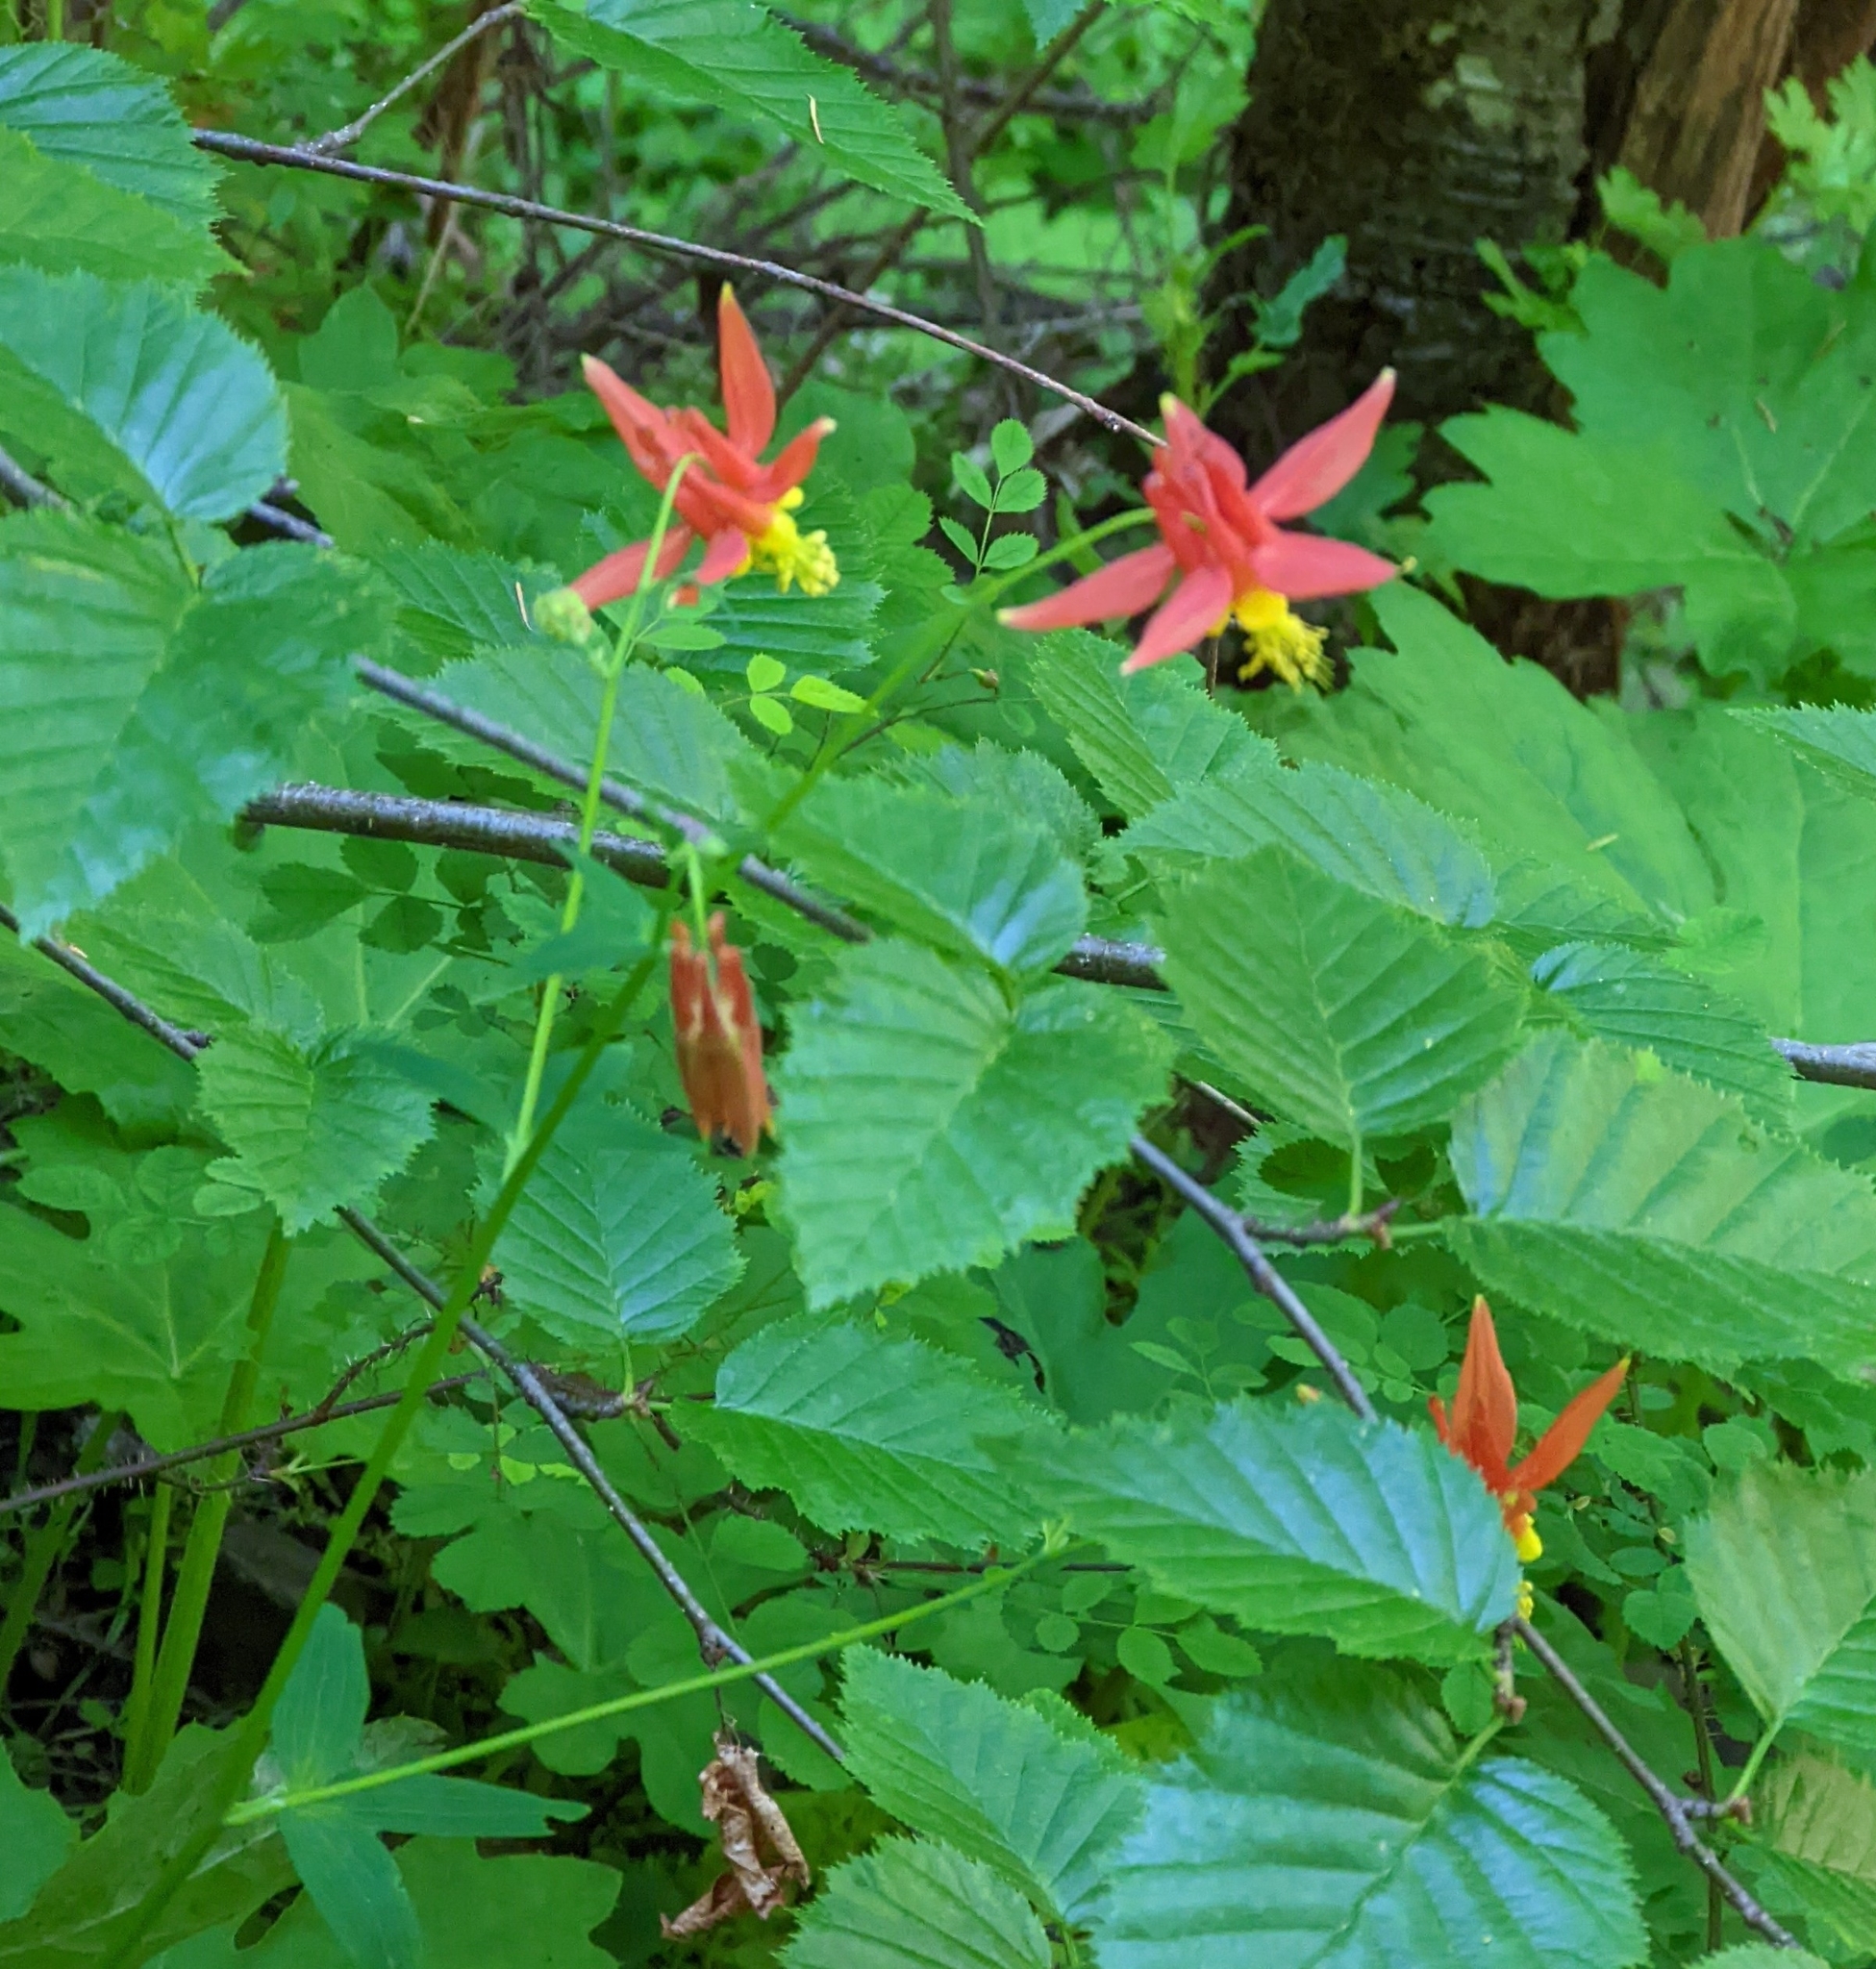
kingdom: Plantae
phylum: Tracheophyta
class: Magnoliopsida
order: Ranunculales
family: Ranunculaceae
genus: Aquilegia
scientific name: Aquilegia formosa
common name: Sitka columbine
